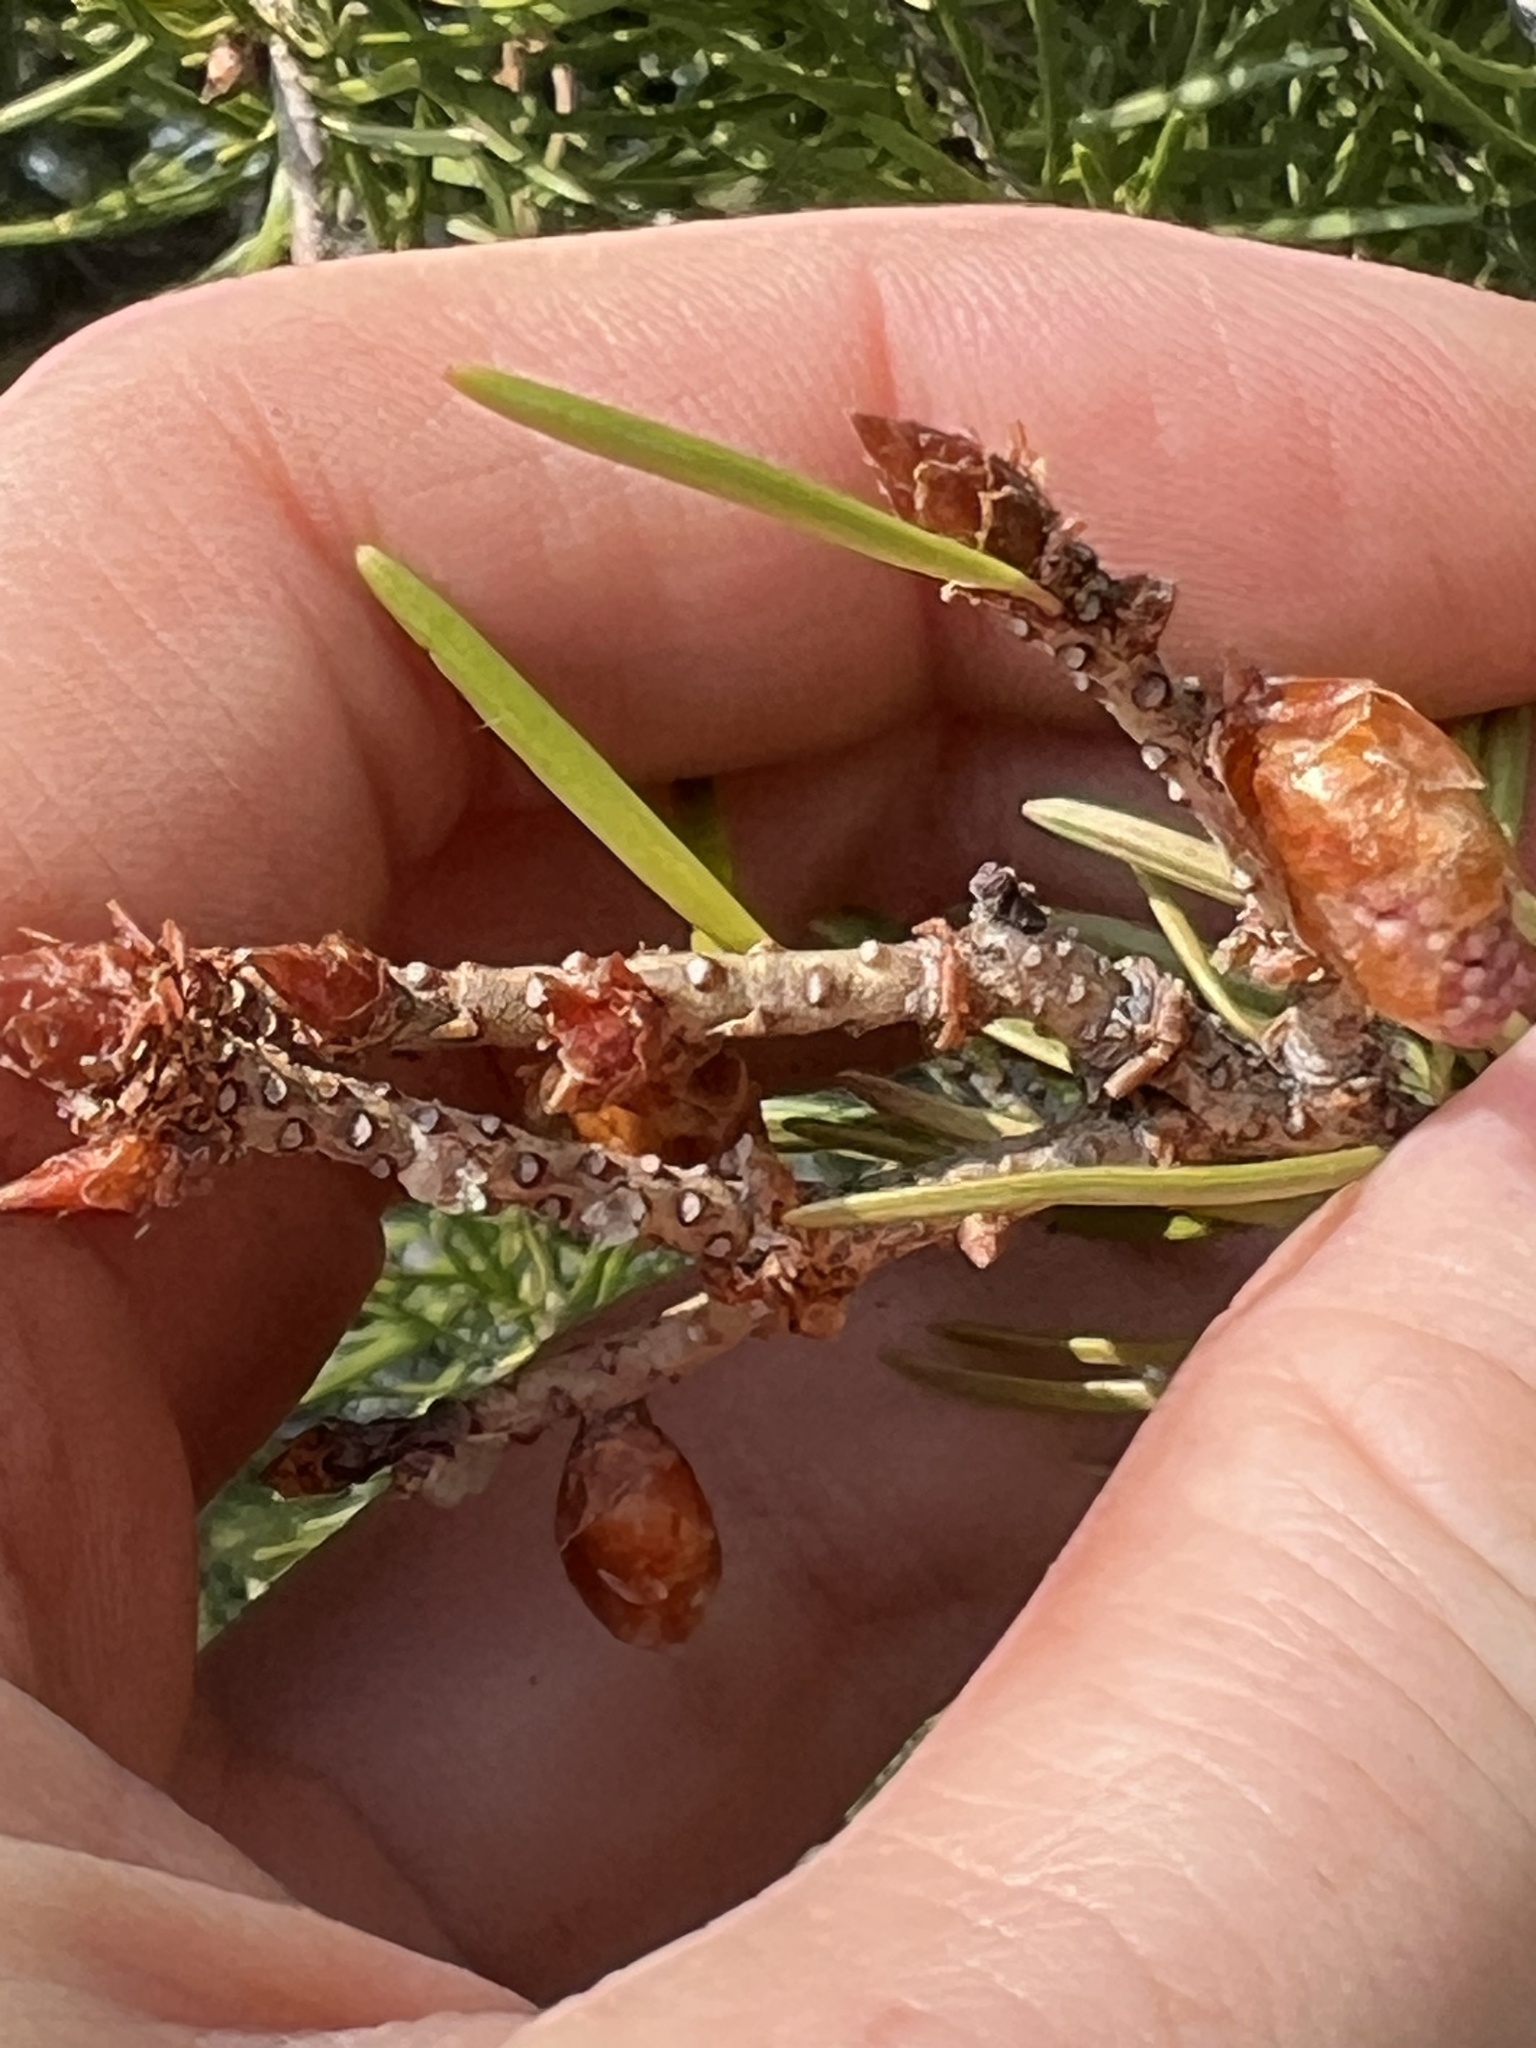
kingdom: Plantae
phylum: Tracheophyta
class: Pinopsida
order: Pinales
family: Pinaceae
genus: Pseudotsuga
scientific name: Pseudotsuga menziesii
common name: Douglas fir
